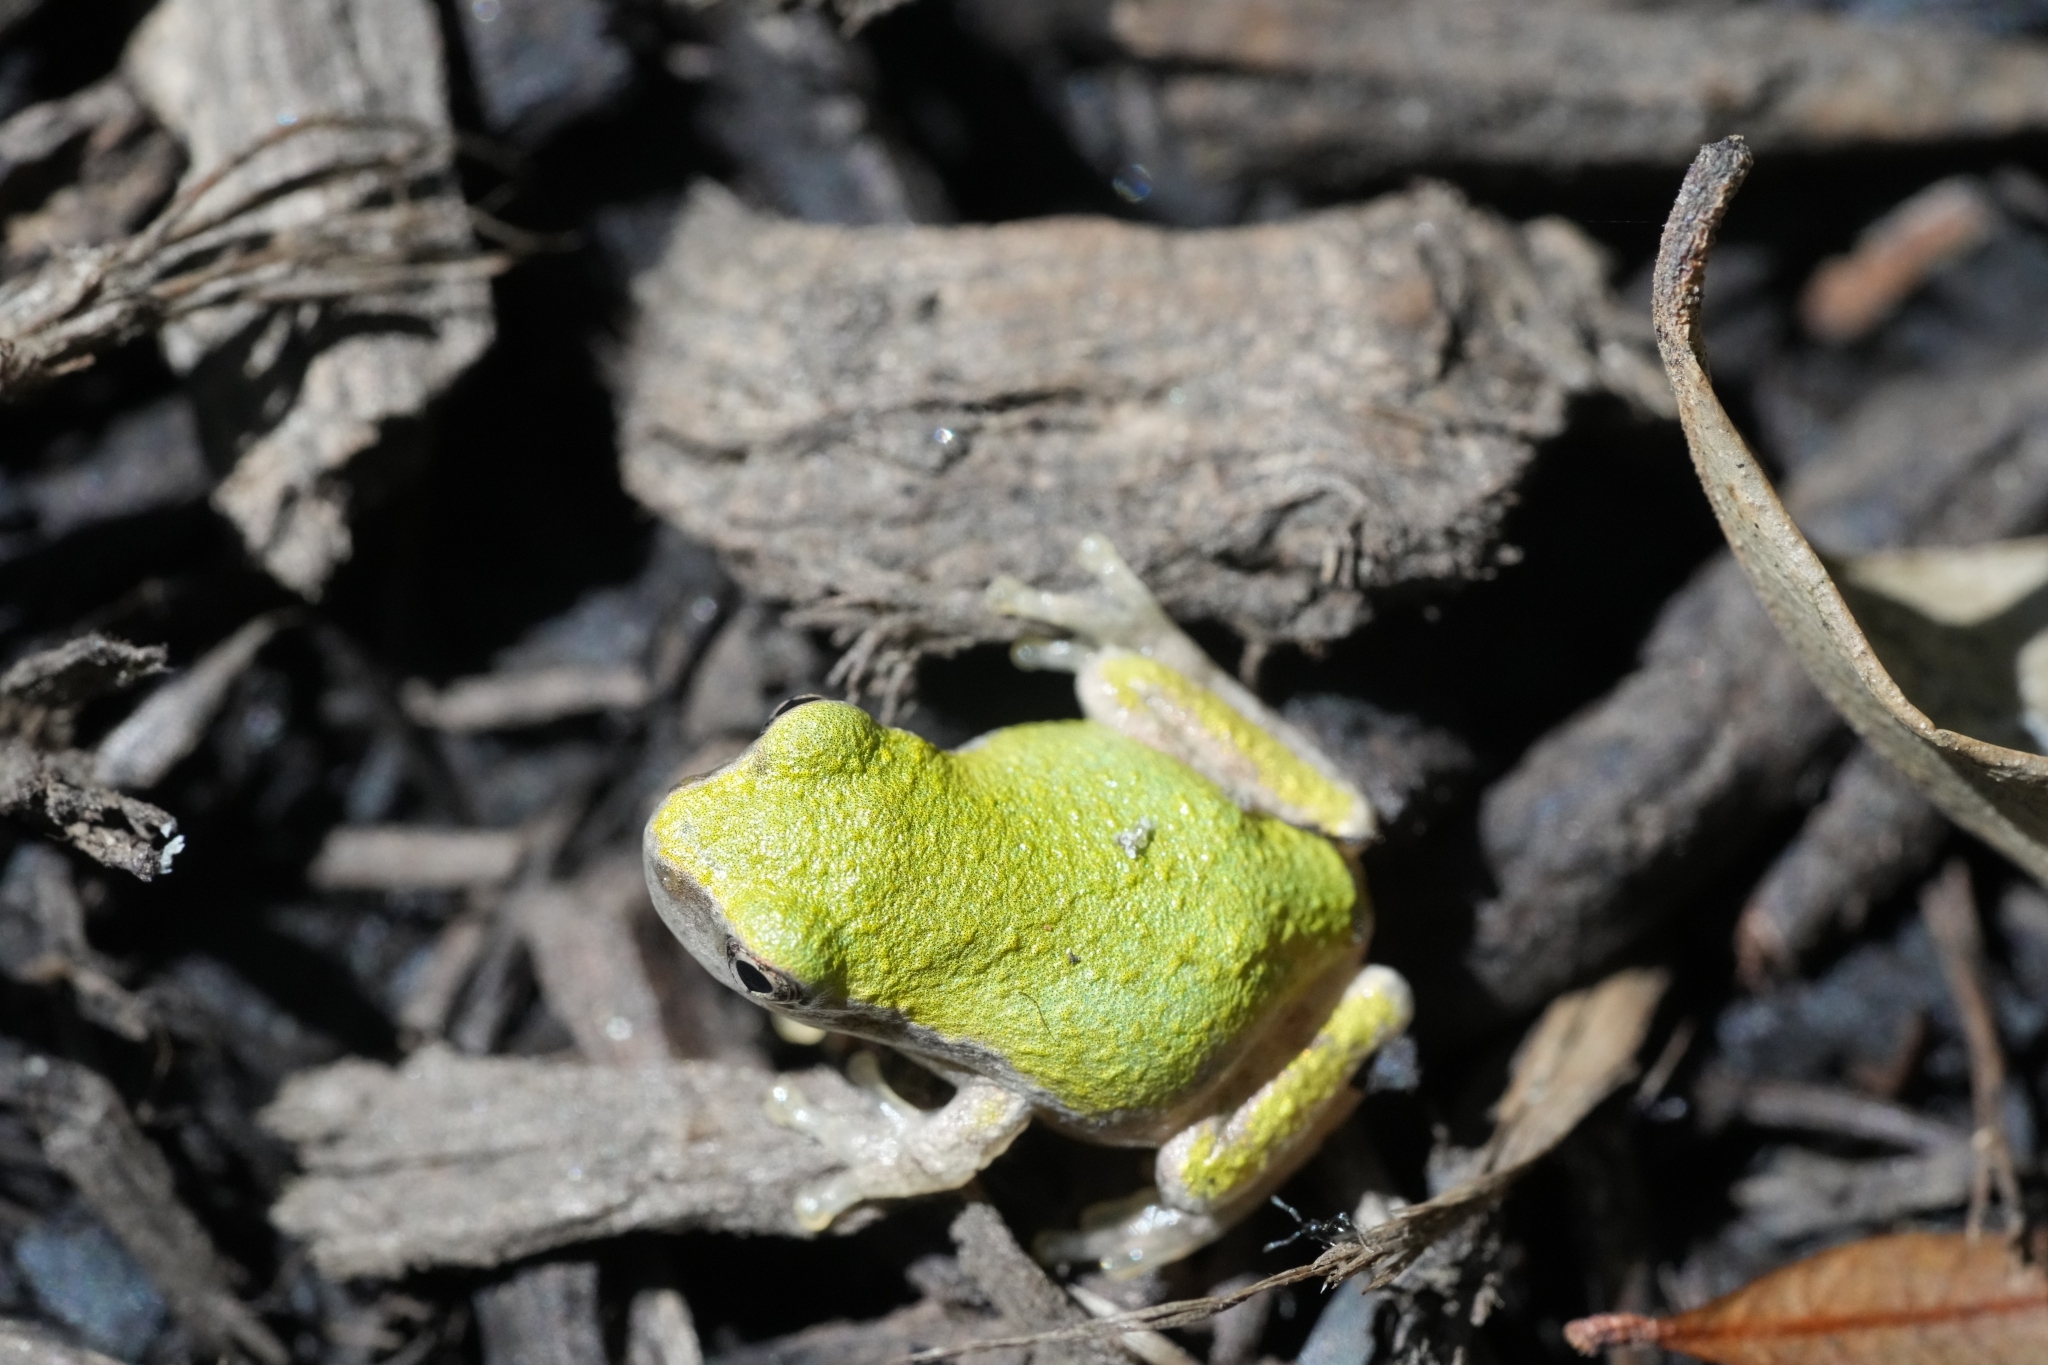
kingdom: Animalia
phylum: Chordata
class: Amphibia
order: Anura
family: Hylidae
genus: Dryophytes
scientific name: Dryophytes versicolor
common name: Gray treefrog
